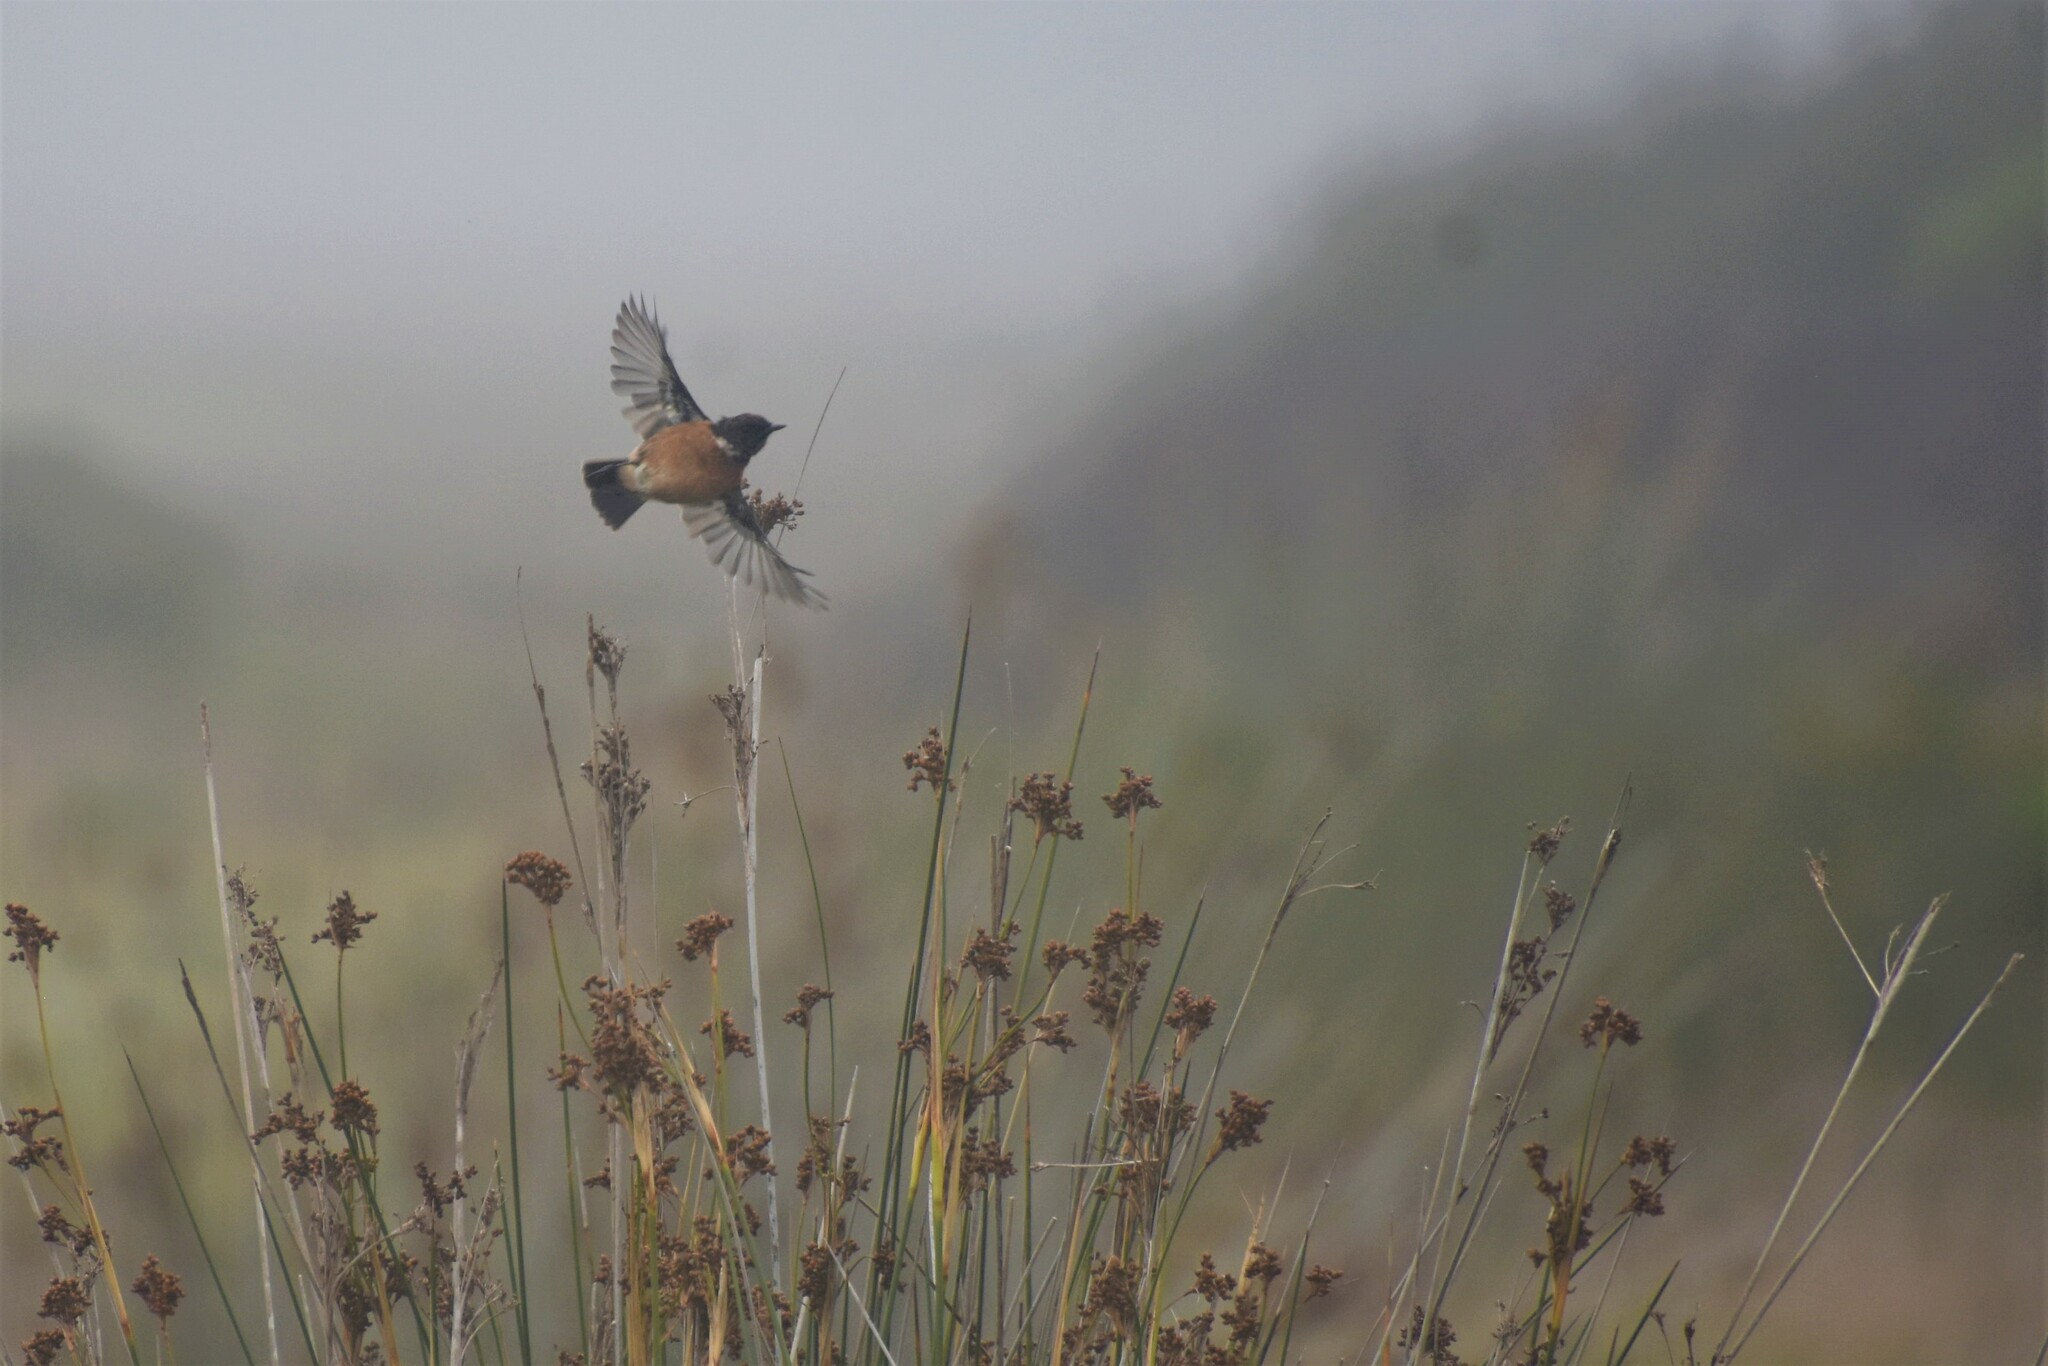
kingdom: Animalia
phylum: Chordata
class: Aves
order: Passeriformes
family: Muscicapidae
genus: Saxicola
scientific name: Saxicola rubicola
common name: European stonechat
